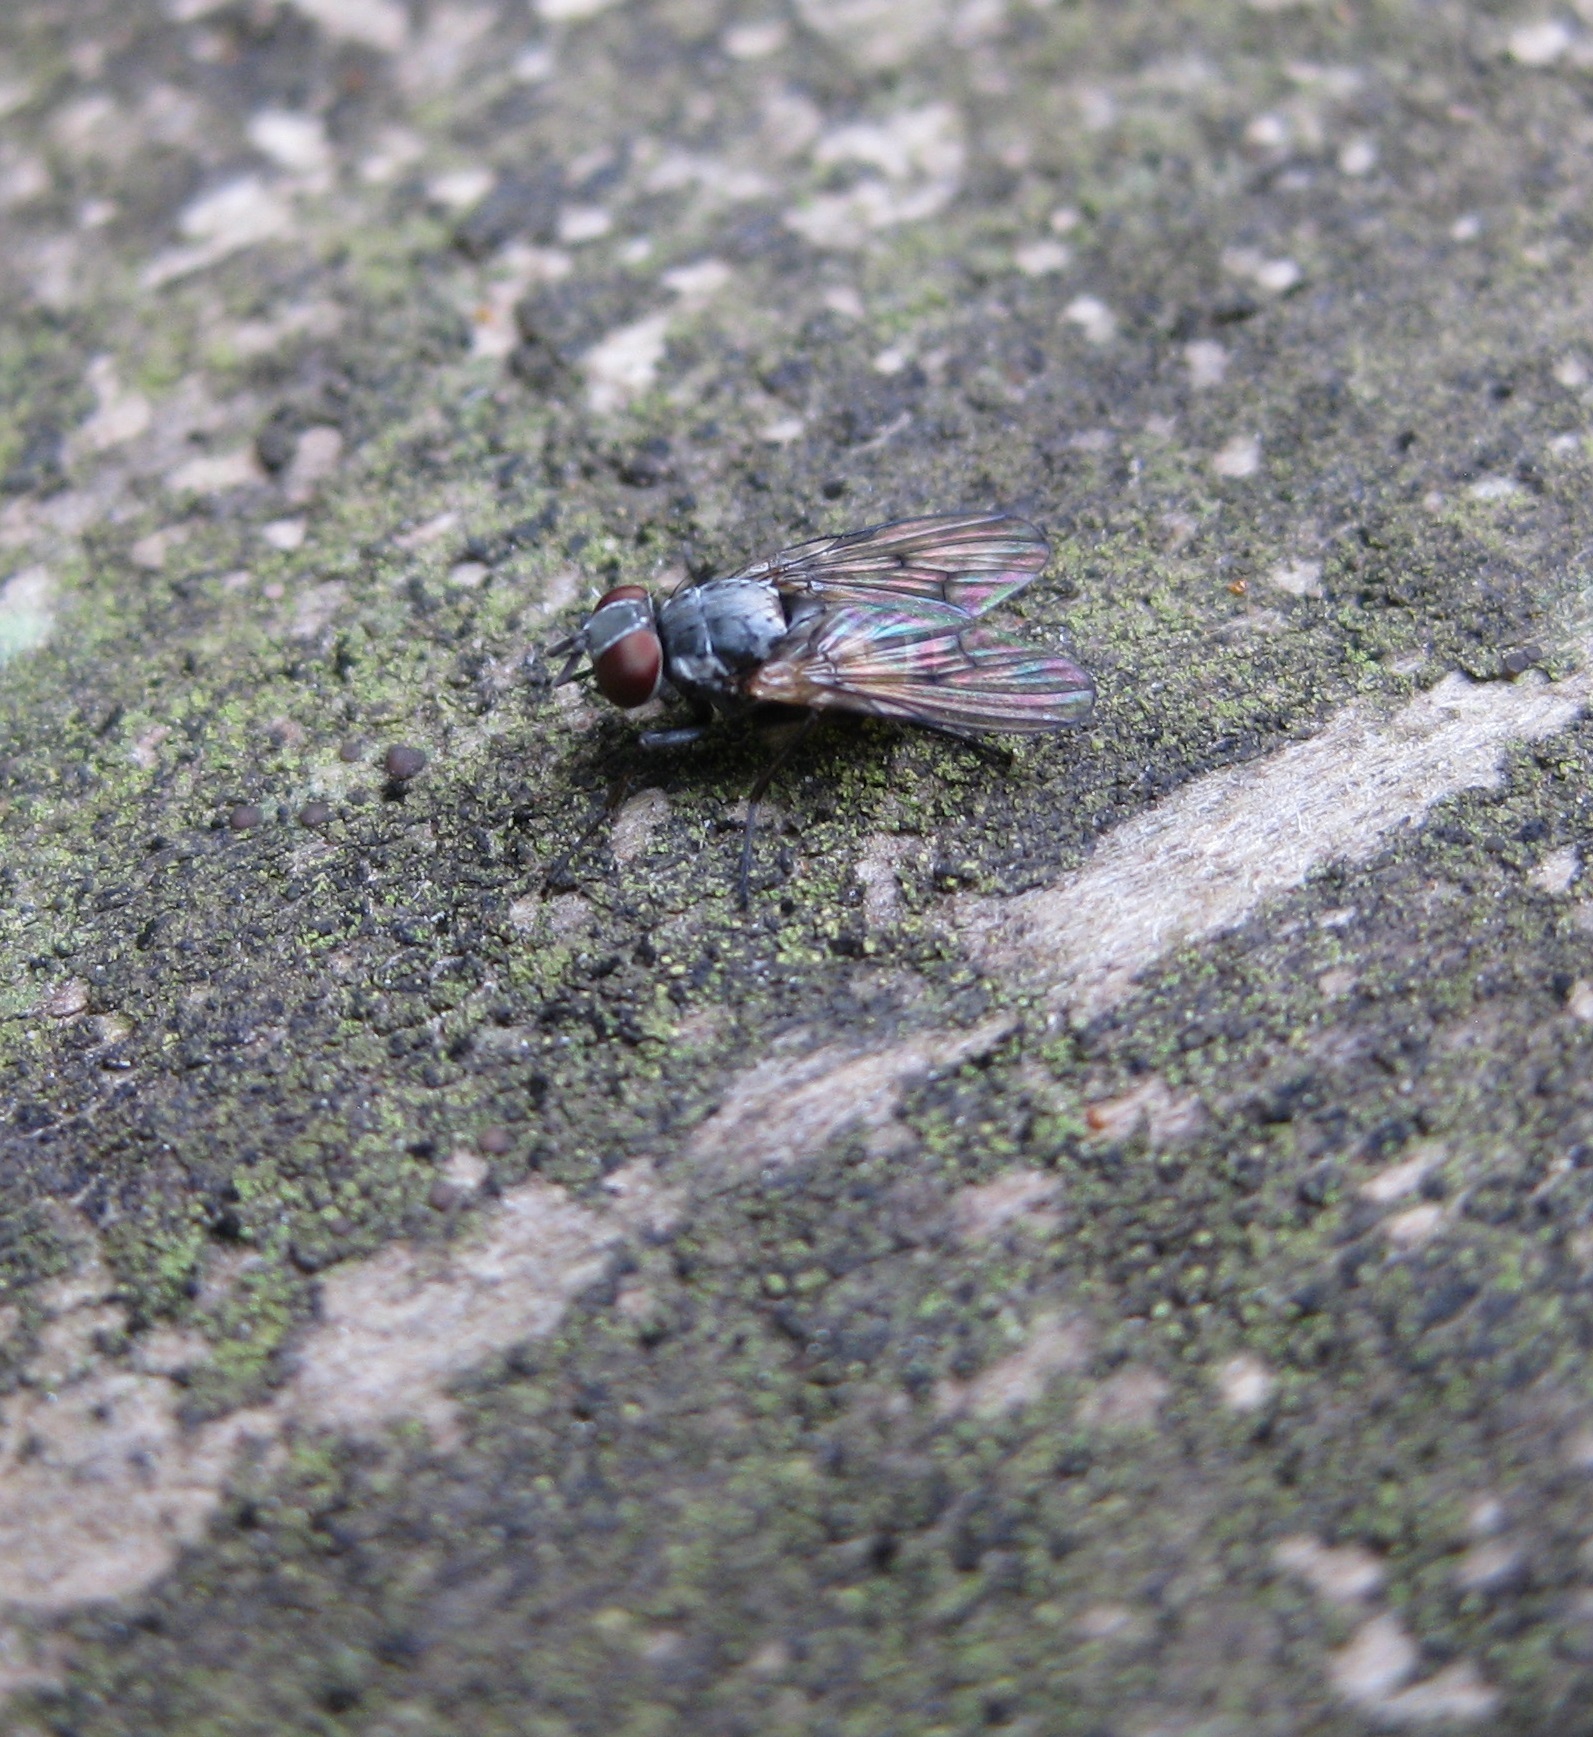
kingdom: Animalia
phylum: Arthropoda
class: Insecta
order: Diptera
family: Muscidae
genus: Spilogona
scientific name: Spilogona flaviventris
